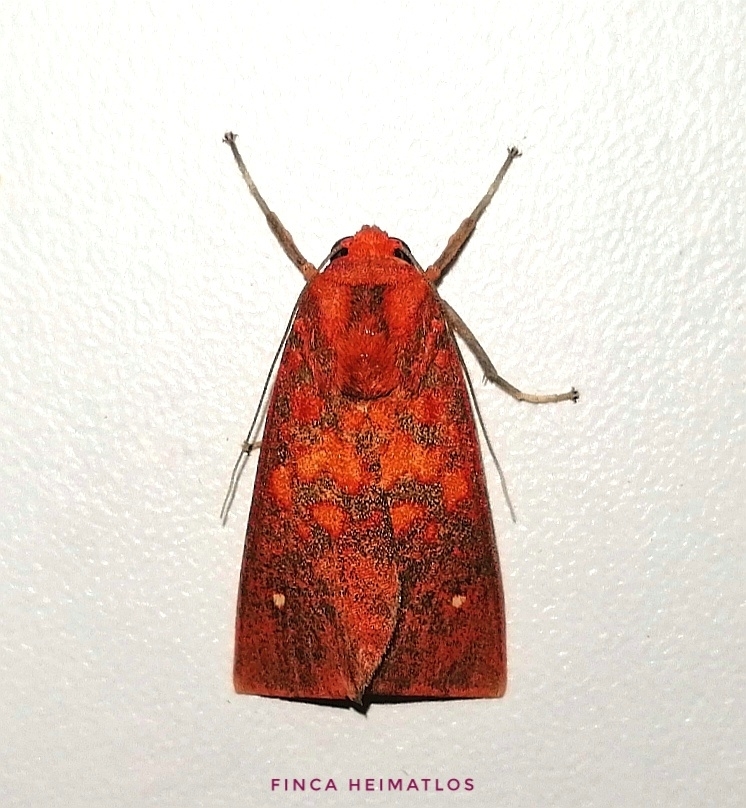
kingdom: Animalia
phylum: Arthropoda
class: Insecta
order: Lepidoptera
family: Erebidae
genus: Melese
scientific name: Melese punctata
